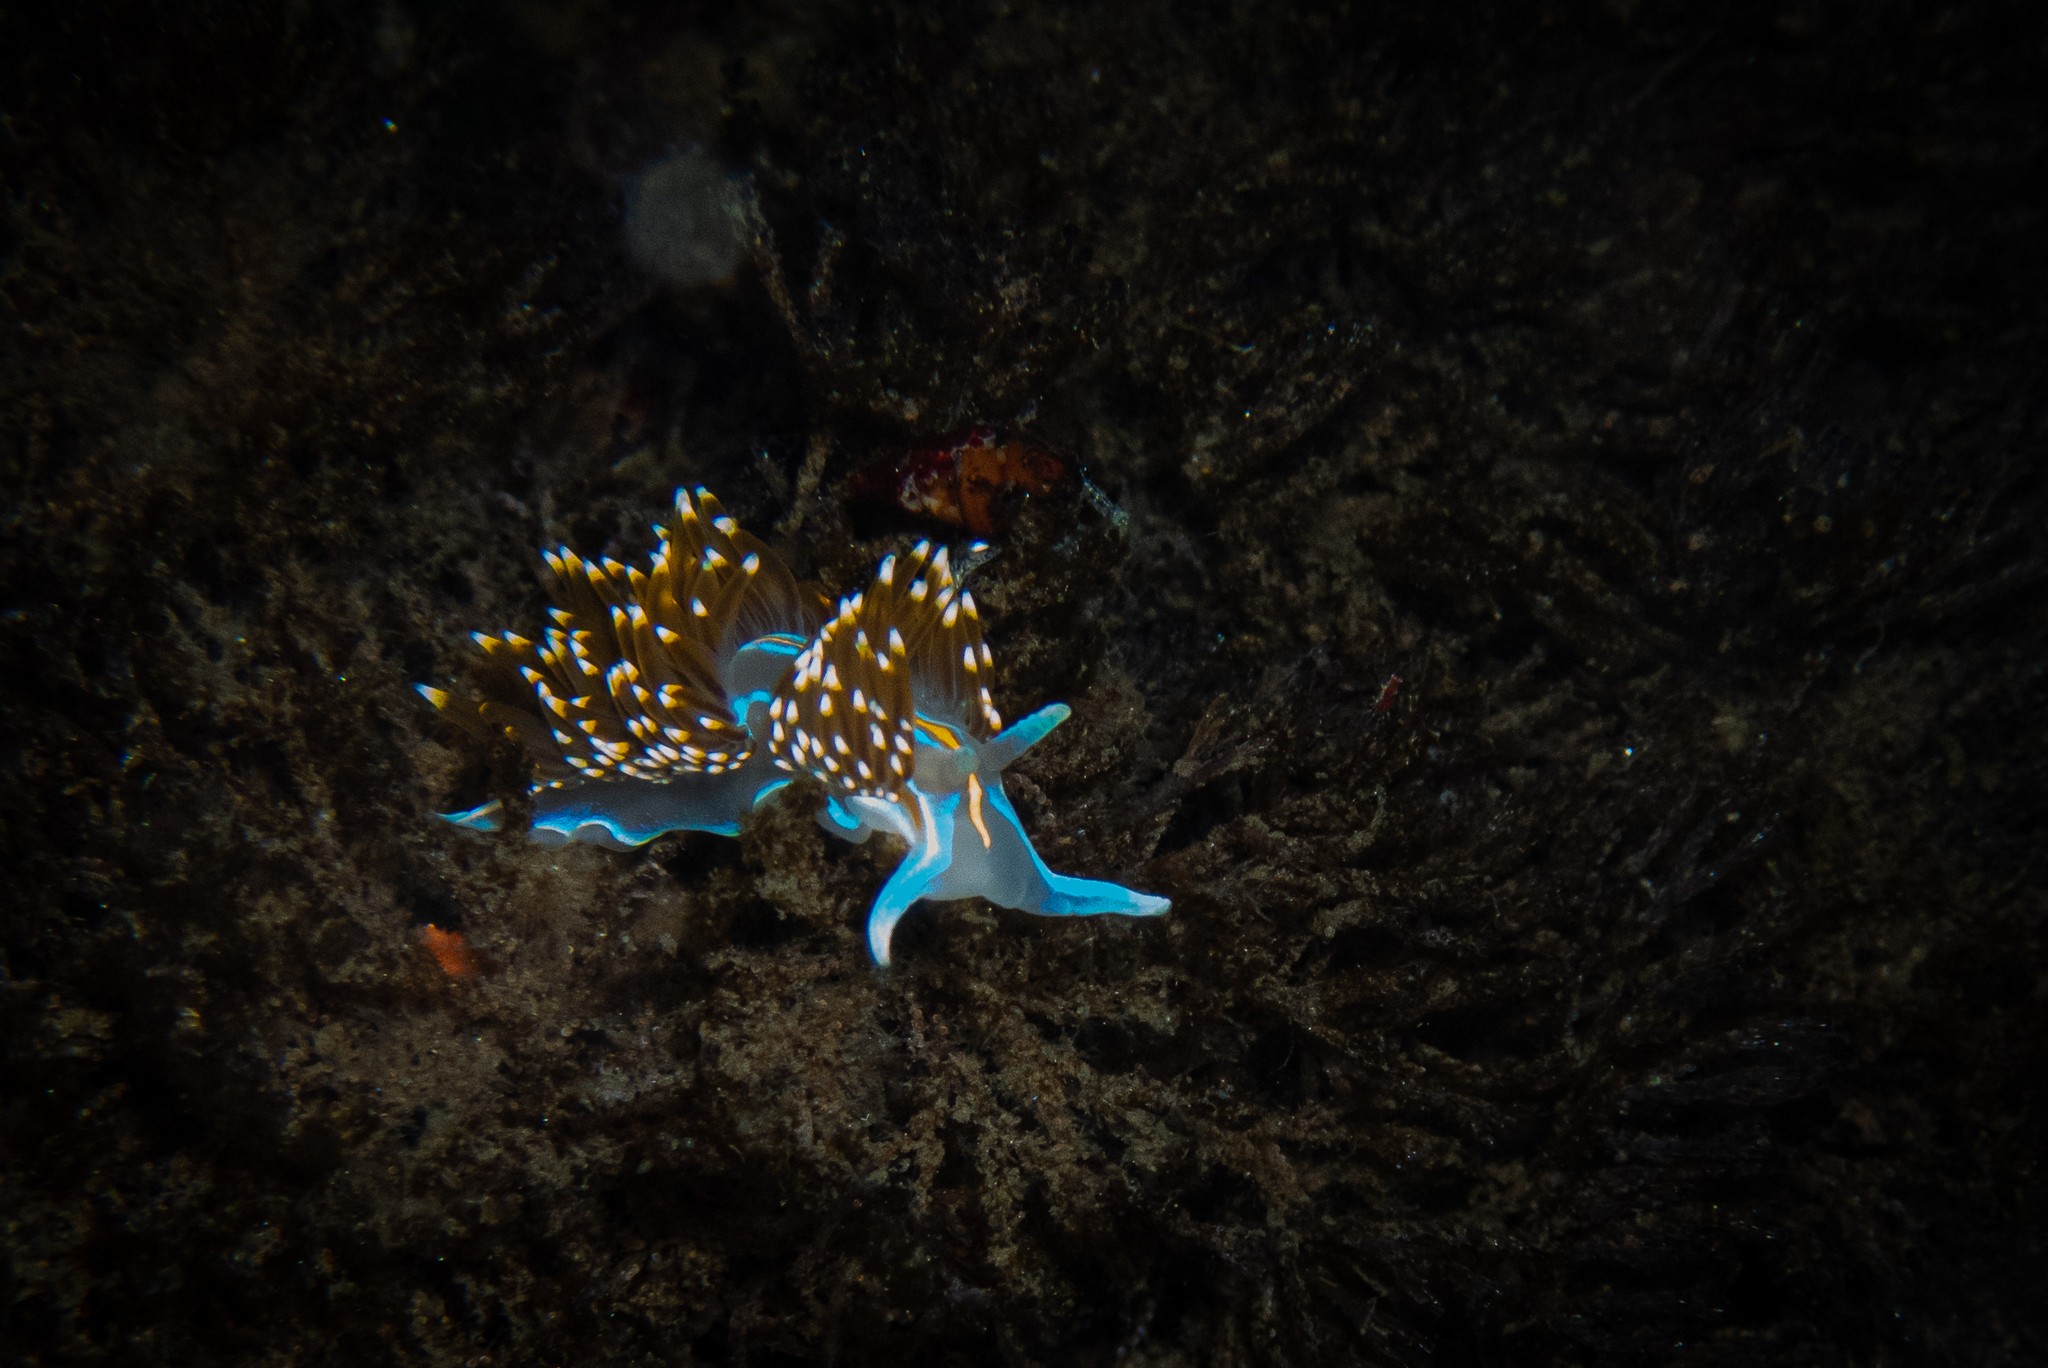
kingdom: Animalia
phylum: Mollusca
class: Gastropoda
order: Nudibranchia
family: Myrrhinidae
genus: Hermissenda
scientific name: Hermissenda opalescens
